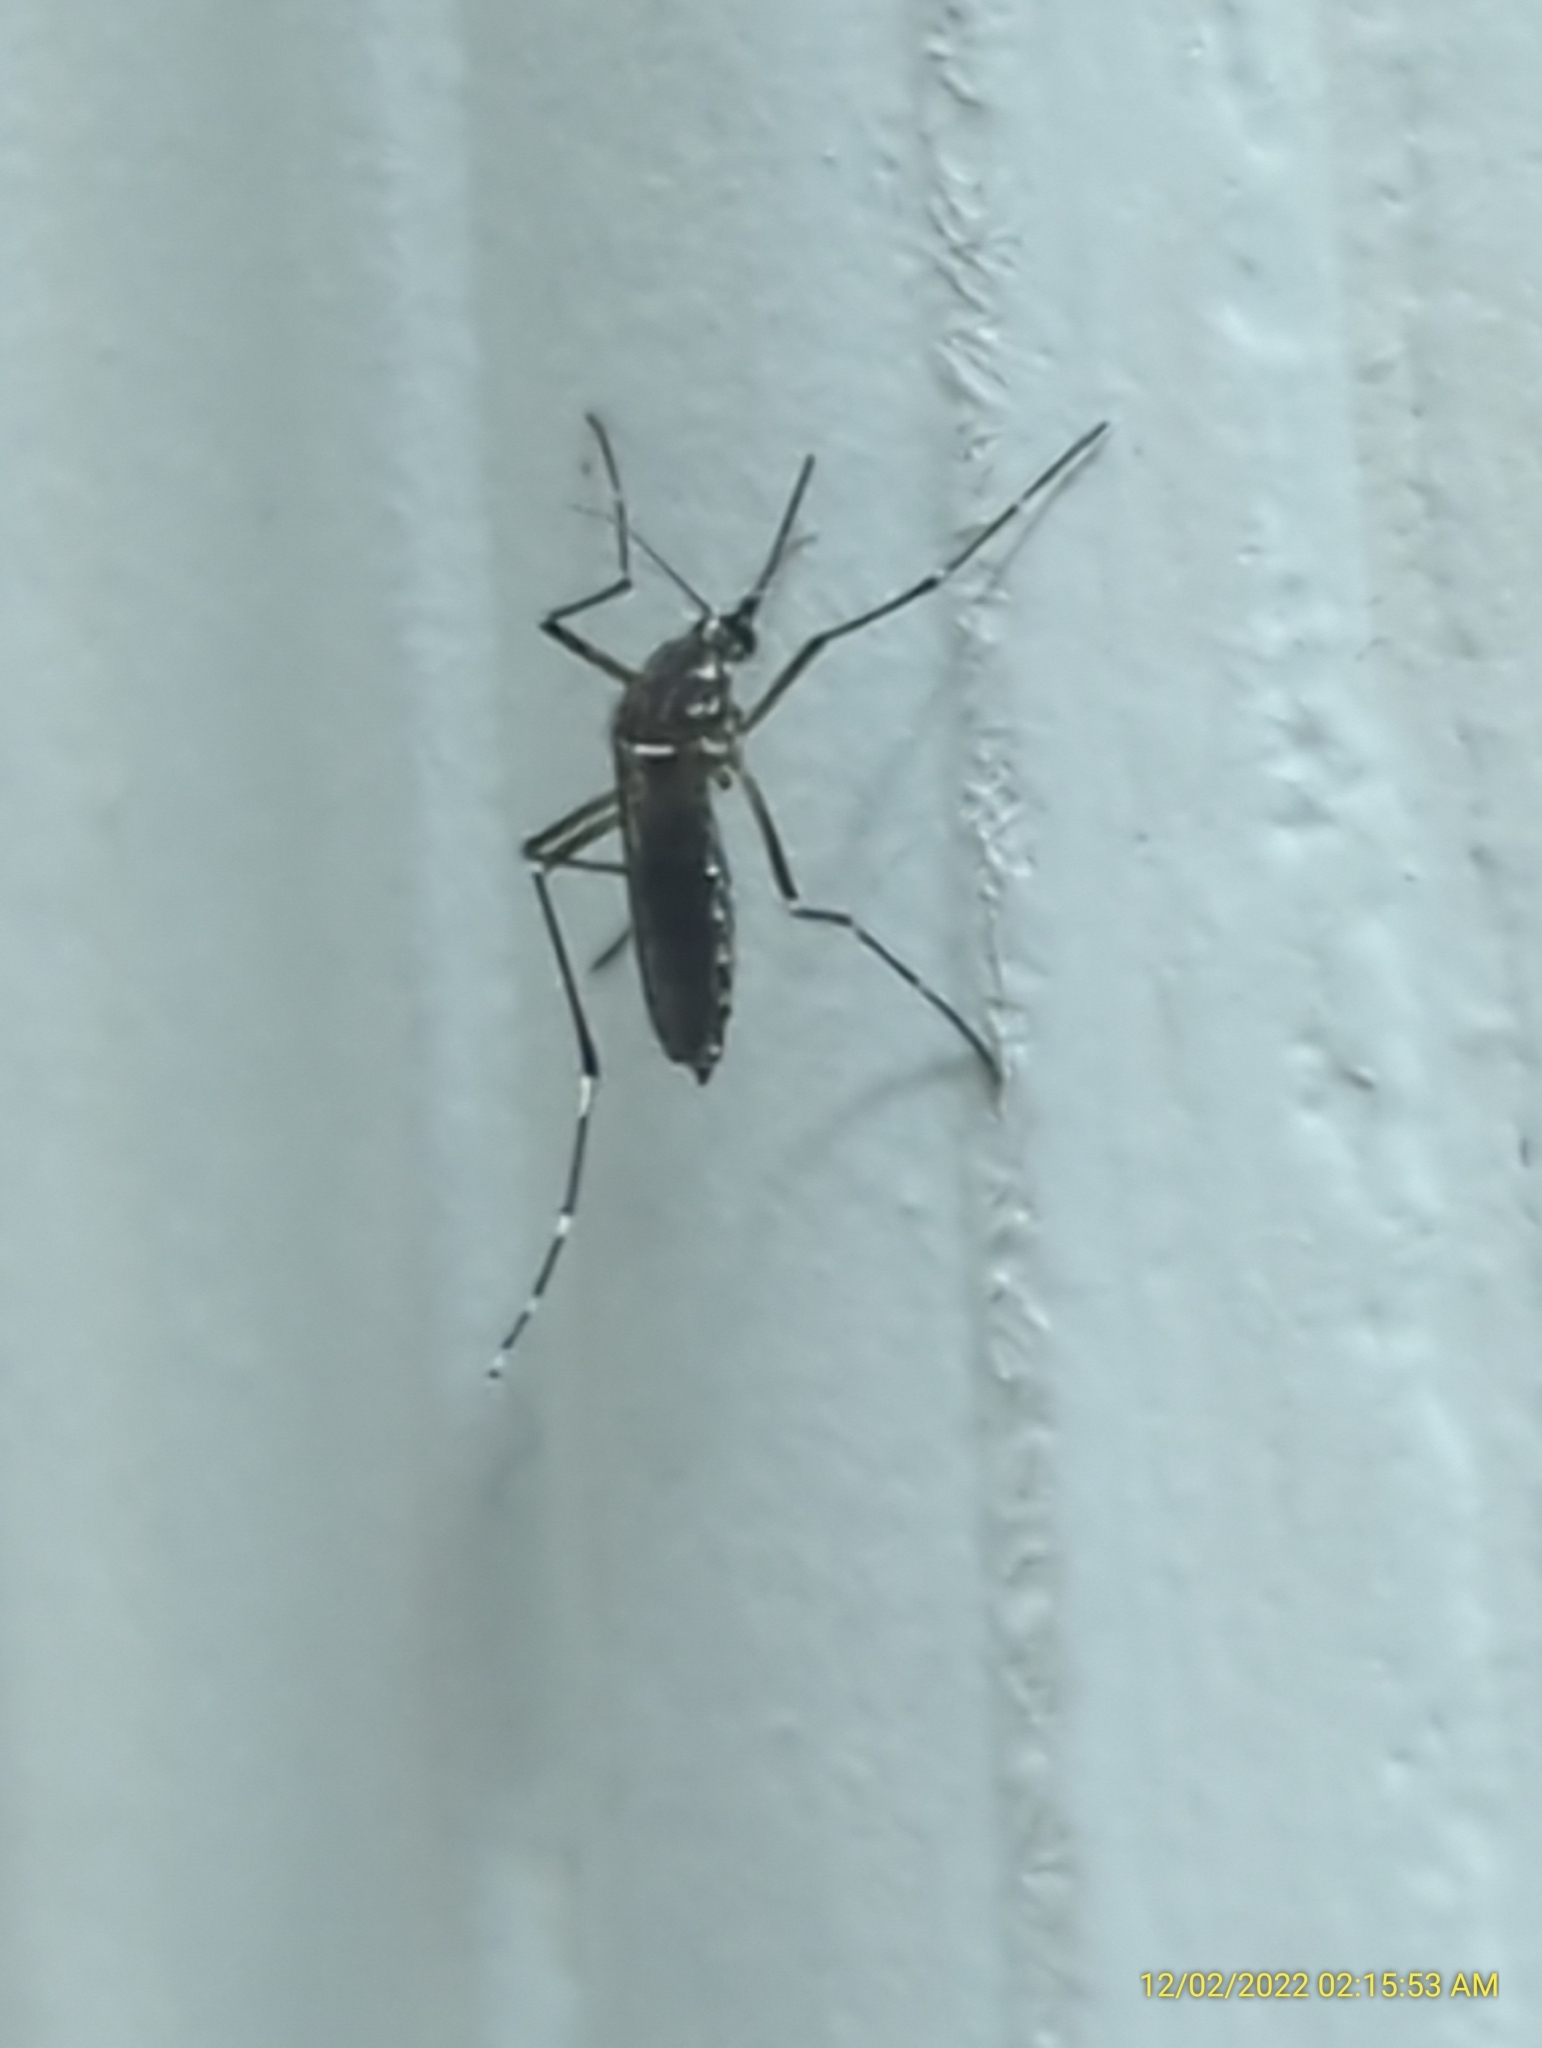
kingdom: Animalia
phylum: Arthropoda
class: Insecta
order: Diptera
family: Culicidae
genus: Aedes
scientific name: Aedes aegypti
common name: Yellow fever mosquito
